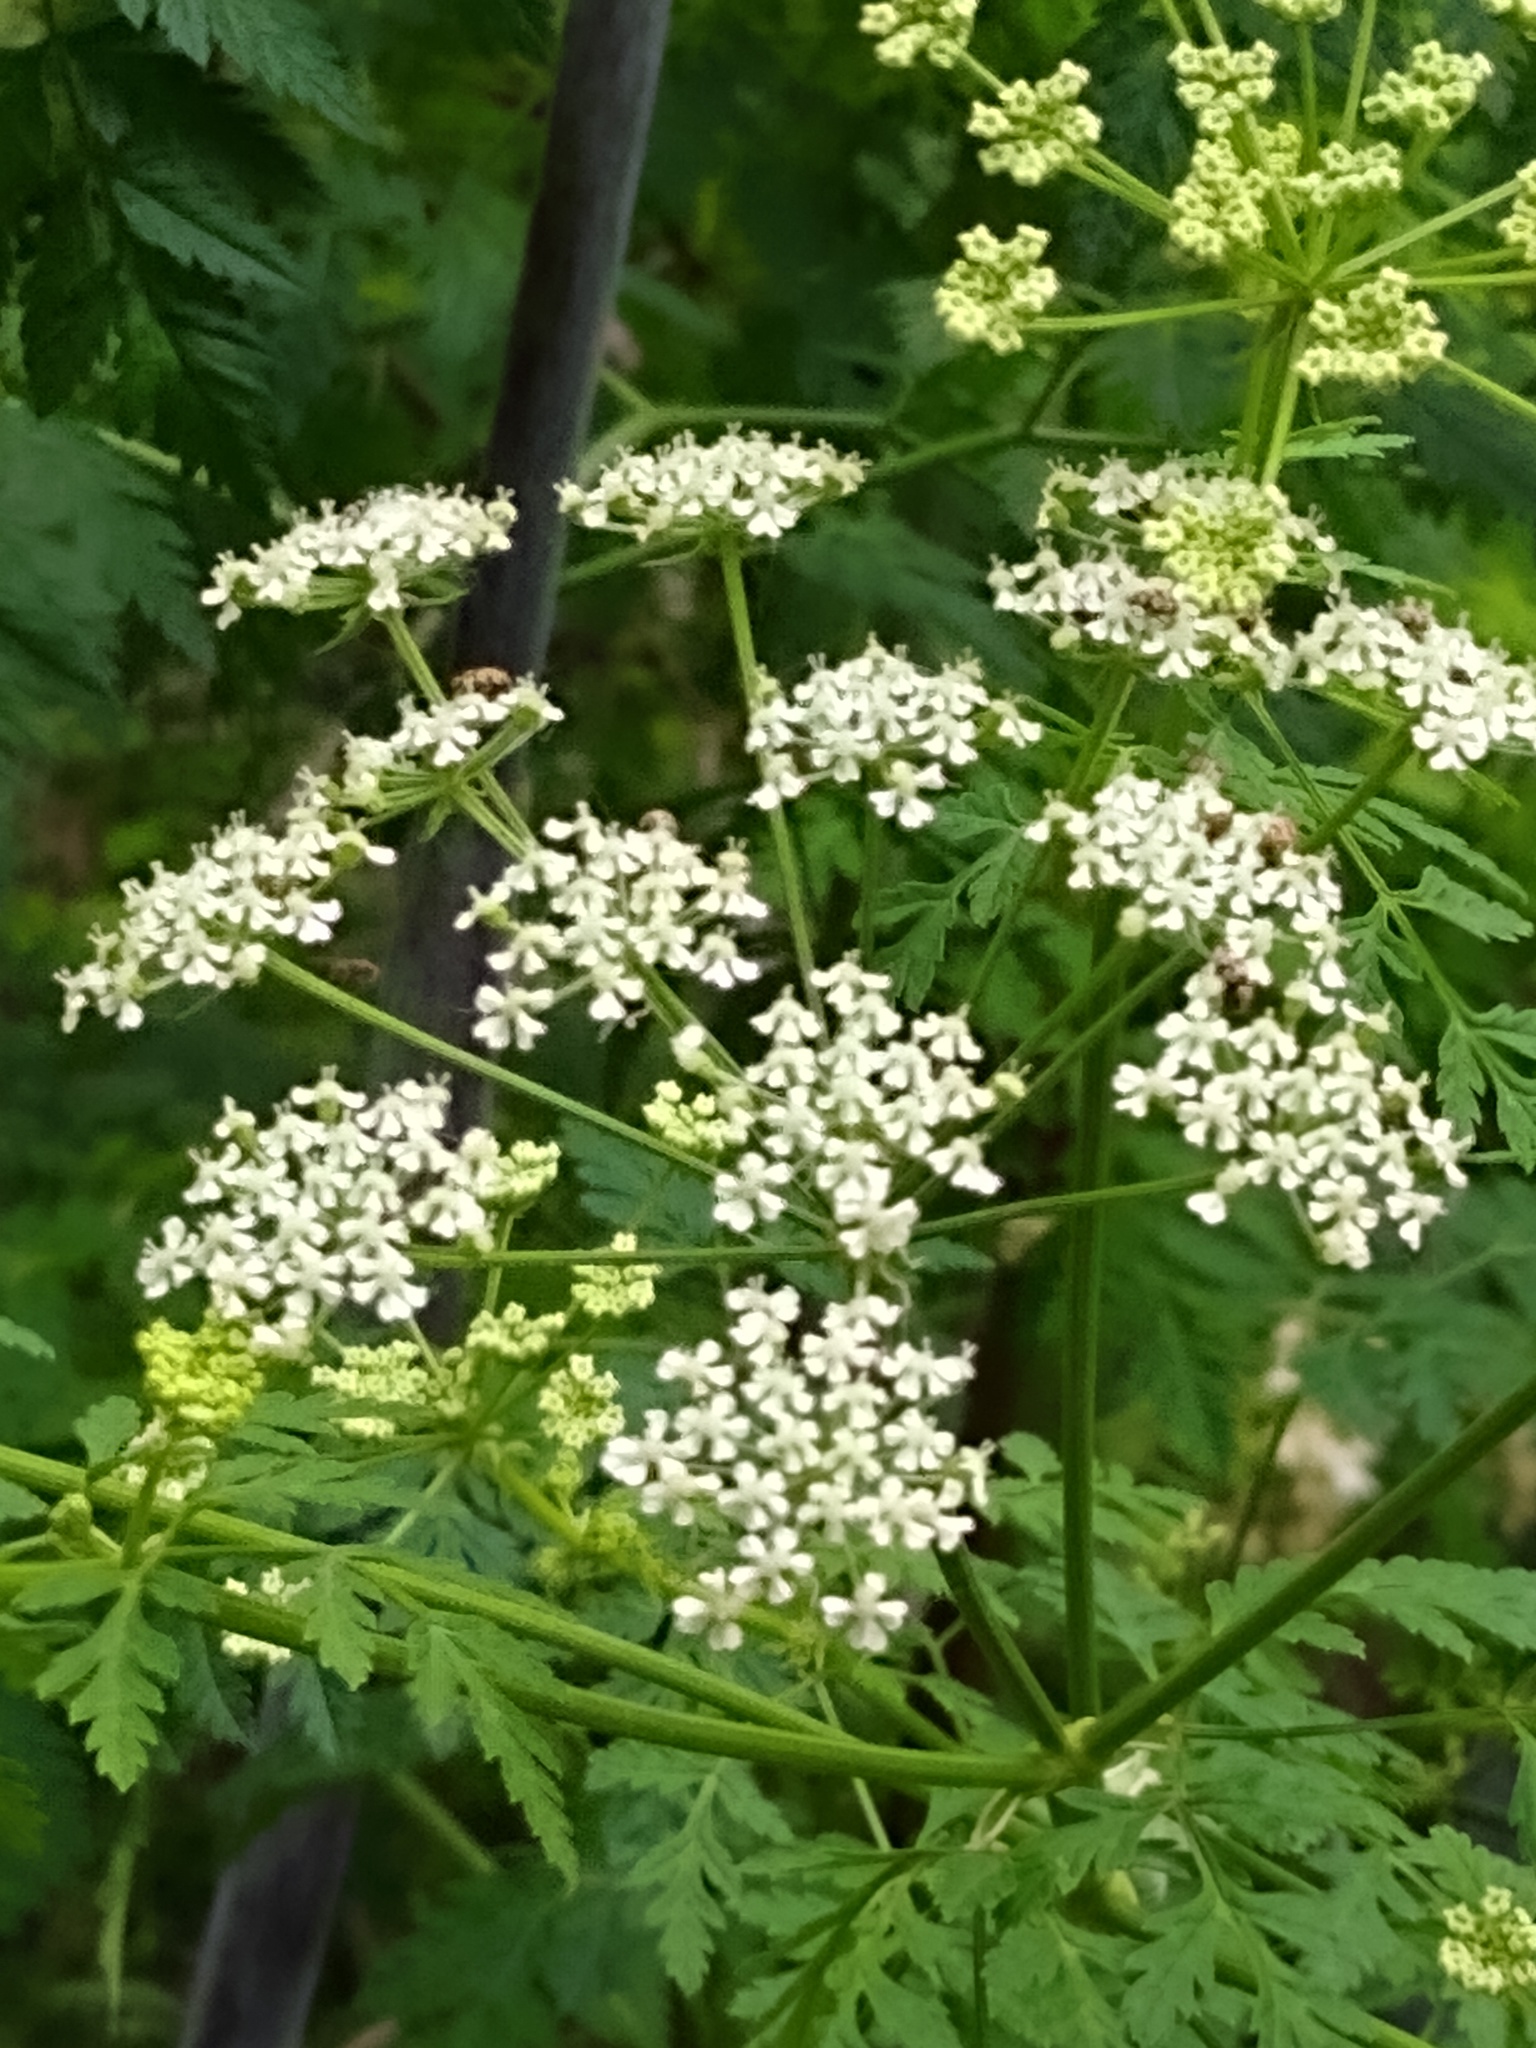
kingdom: Plantae
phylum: Tracheophyta
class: Magnoliopsida
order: Apiales
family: Apiaceae
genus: Anthriscus
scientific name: Anthriscus sylvestris
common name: Cow parsley
